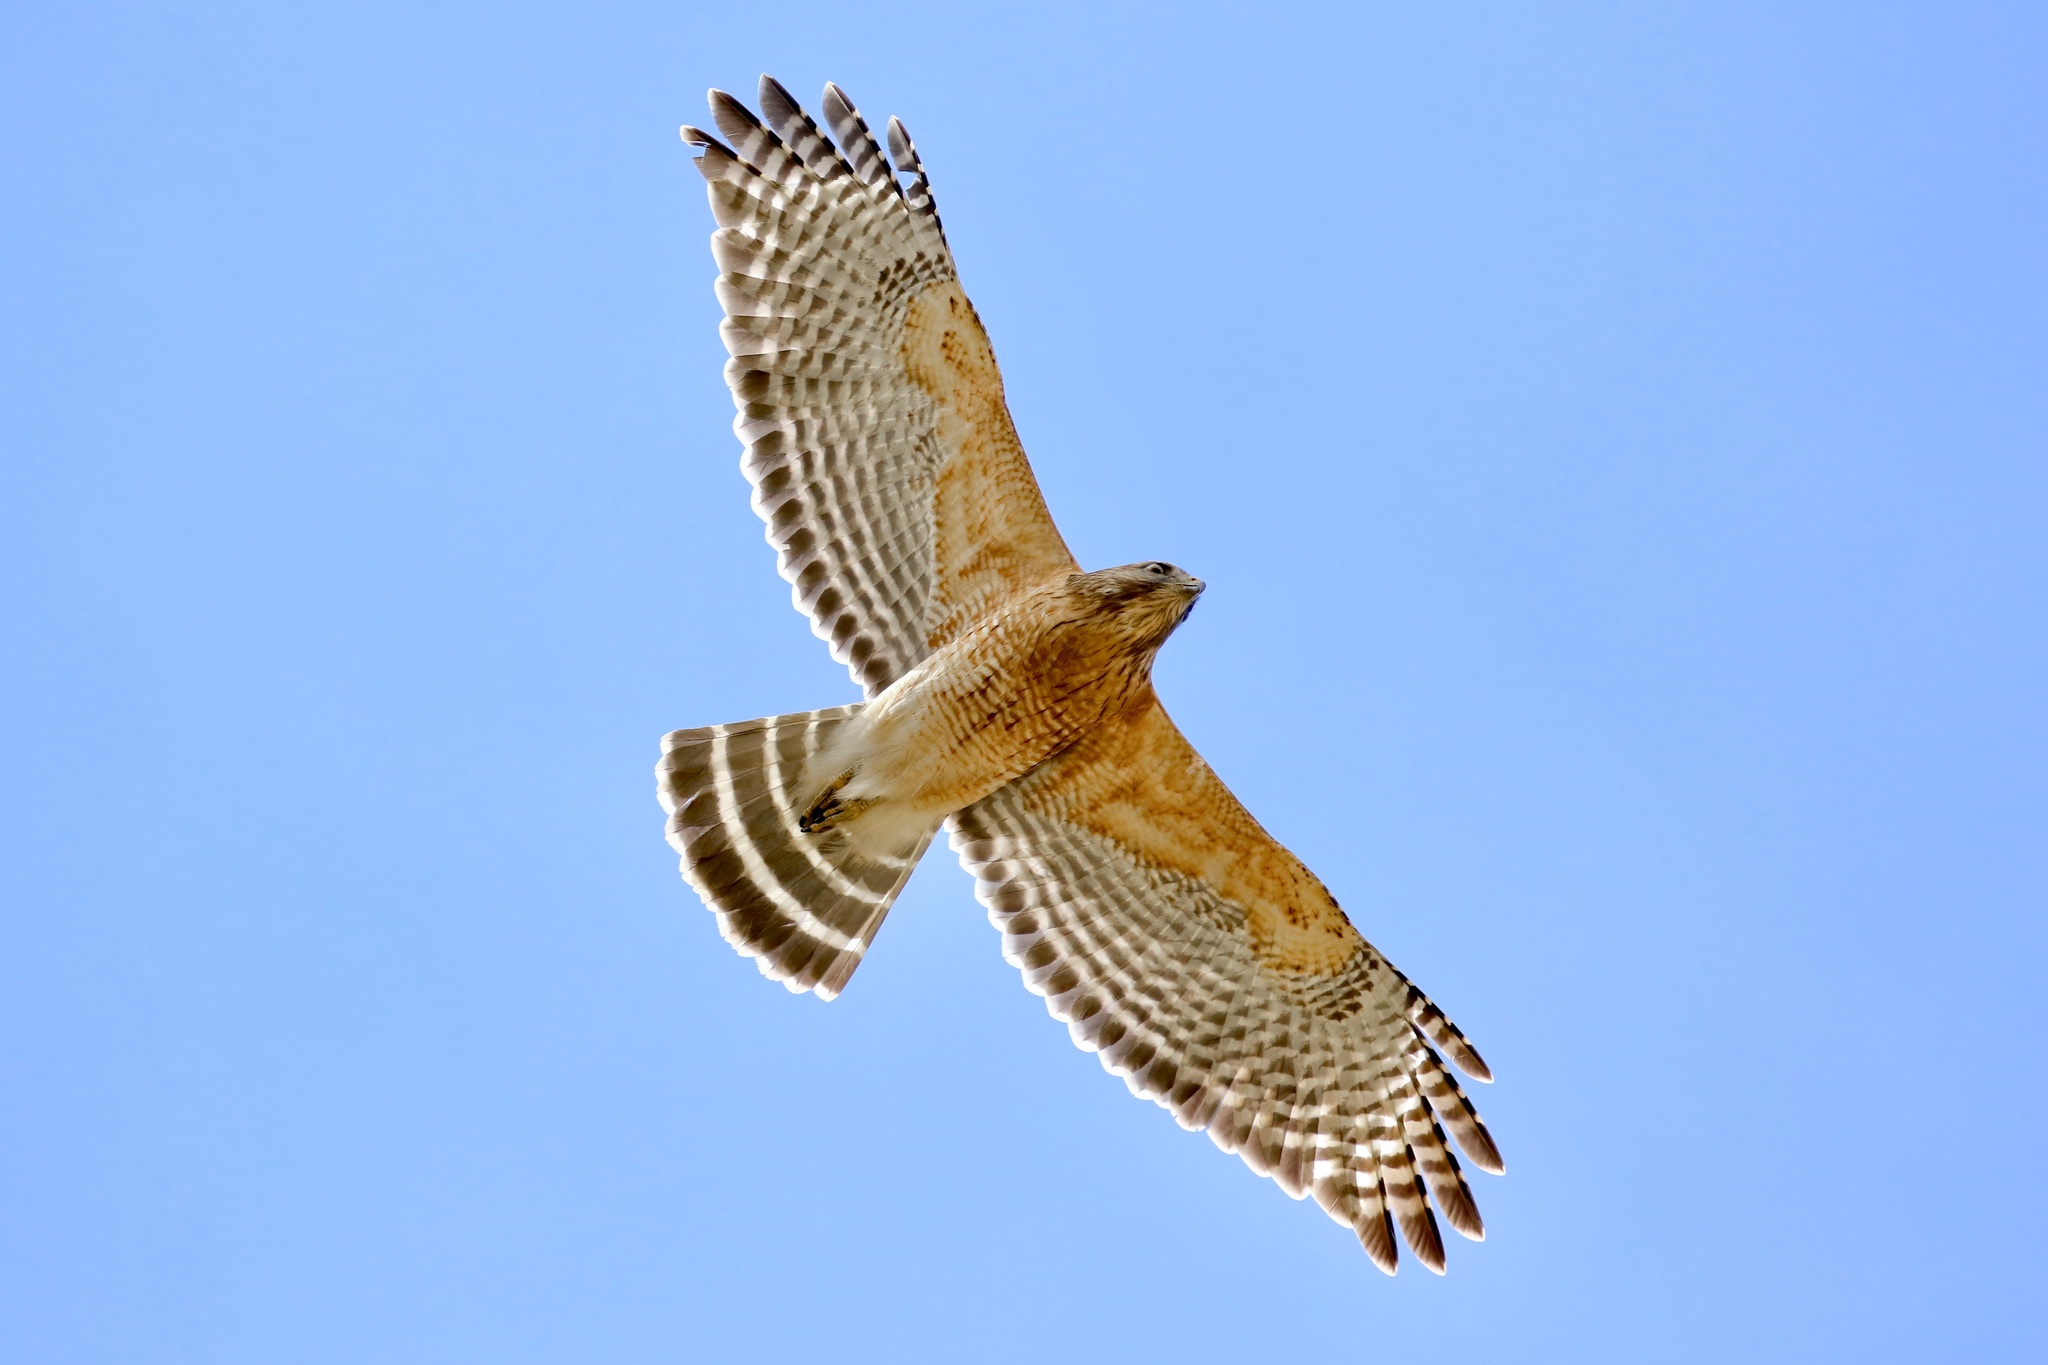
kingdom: Animalia
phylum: Chordata
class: Aves
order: Accipitriformes
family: Accipitridae
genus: Buteo
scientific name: Buteo lineatus
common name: Red-shouldered hawk
